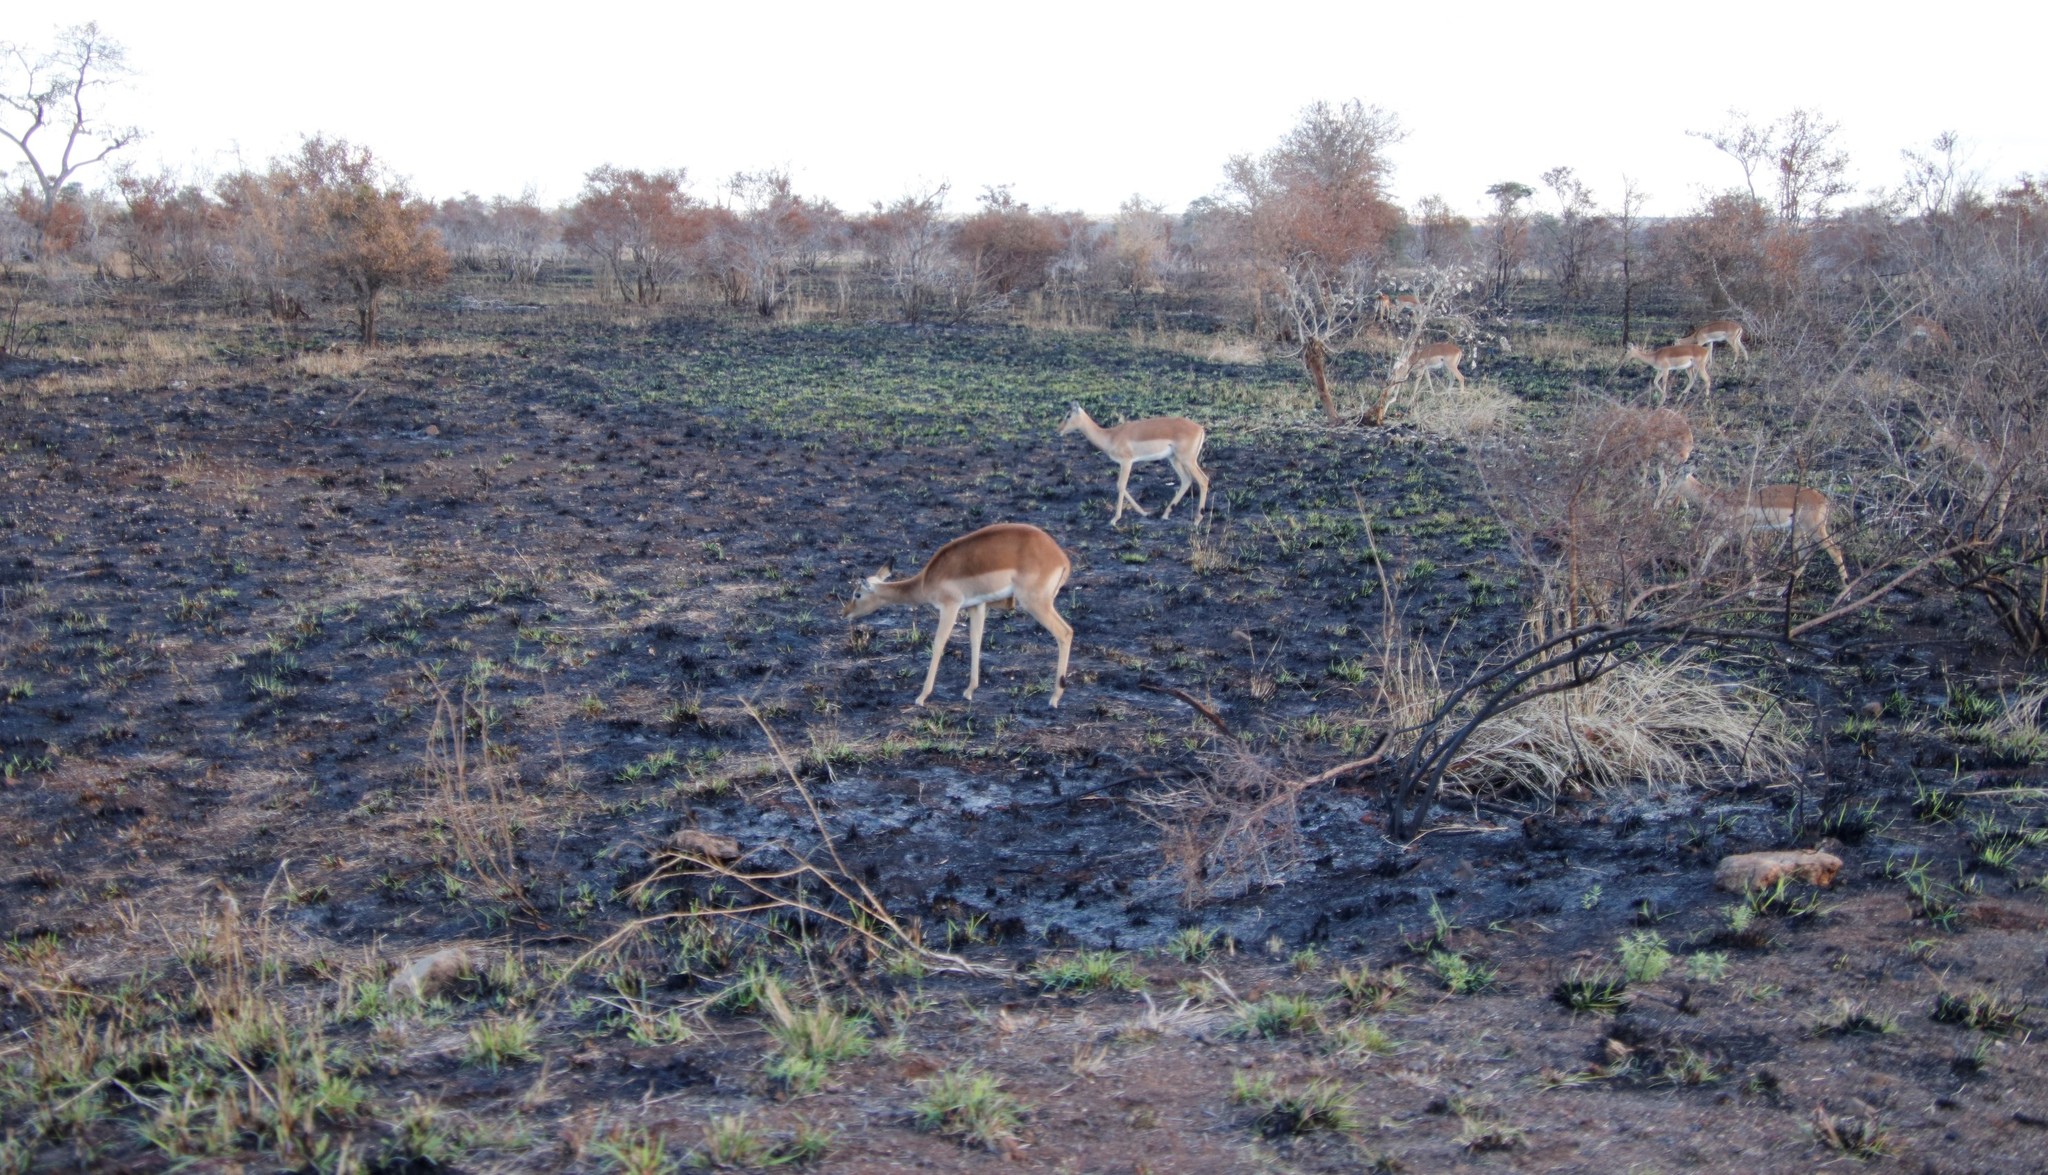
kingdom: Animalia
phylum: Chordata
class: Mammalia
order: Artiodactyla
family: Bovidae
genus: Aepyceros
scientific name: Aepyceros melampus
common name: Impala
